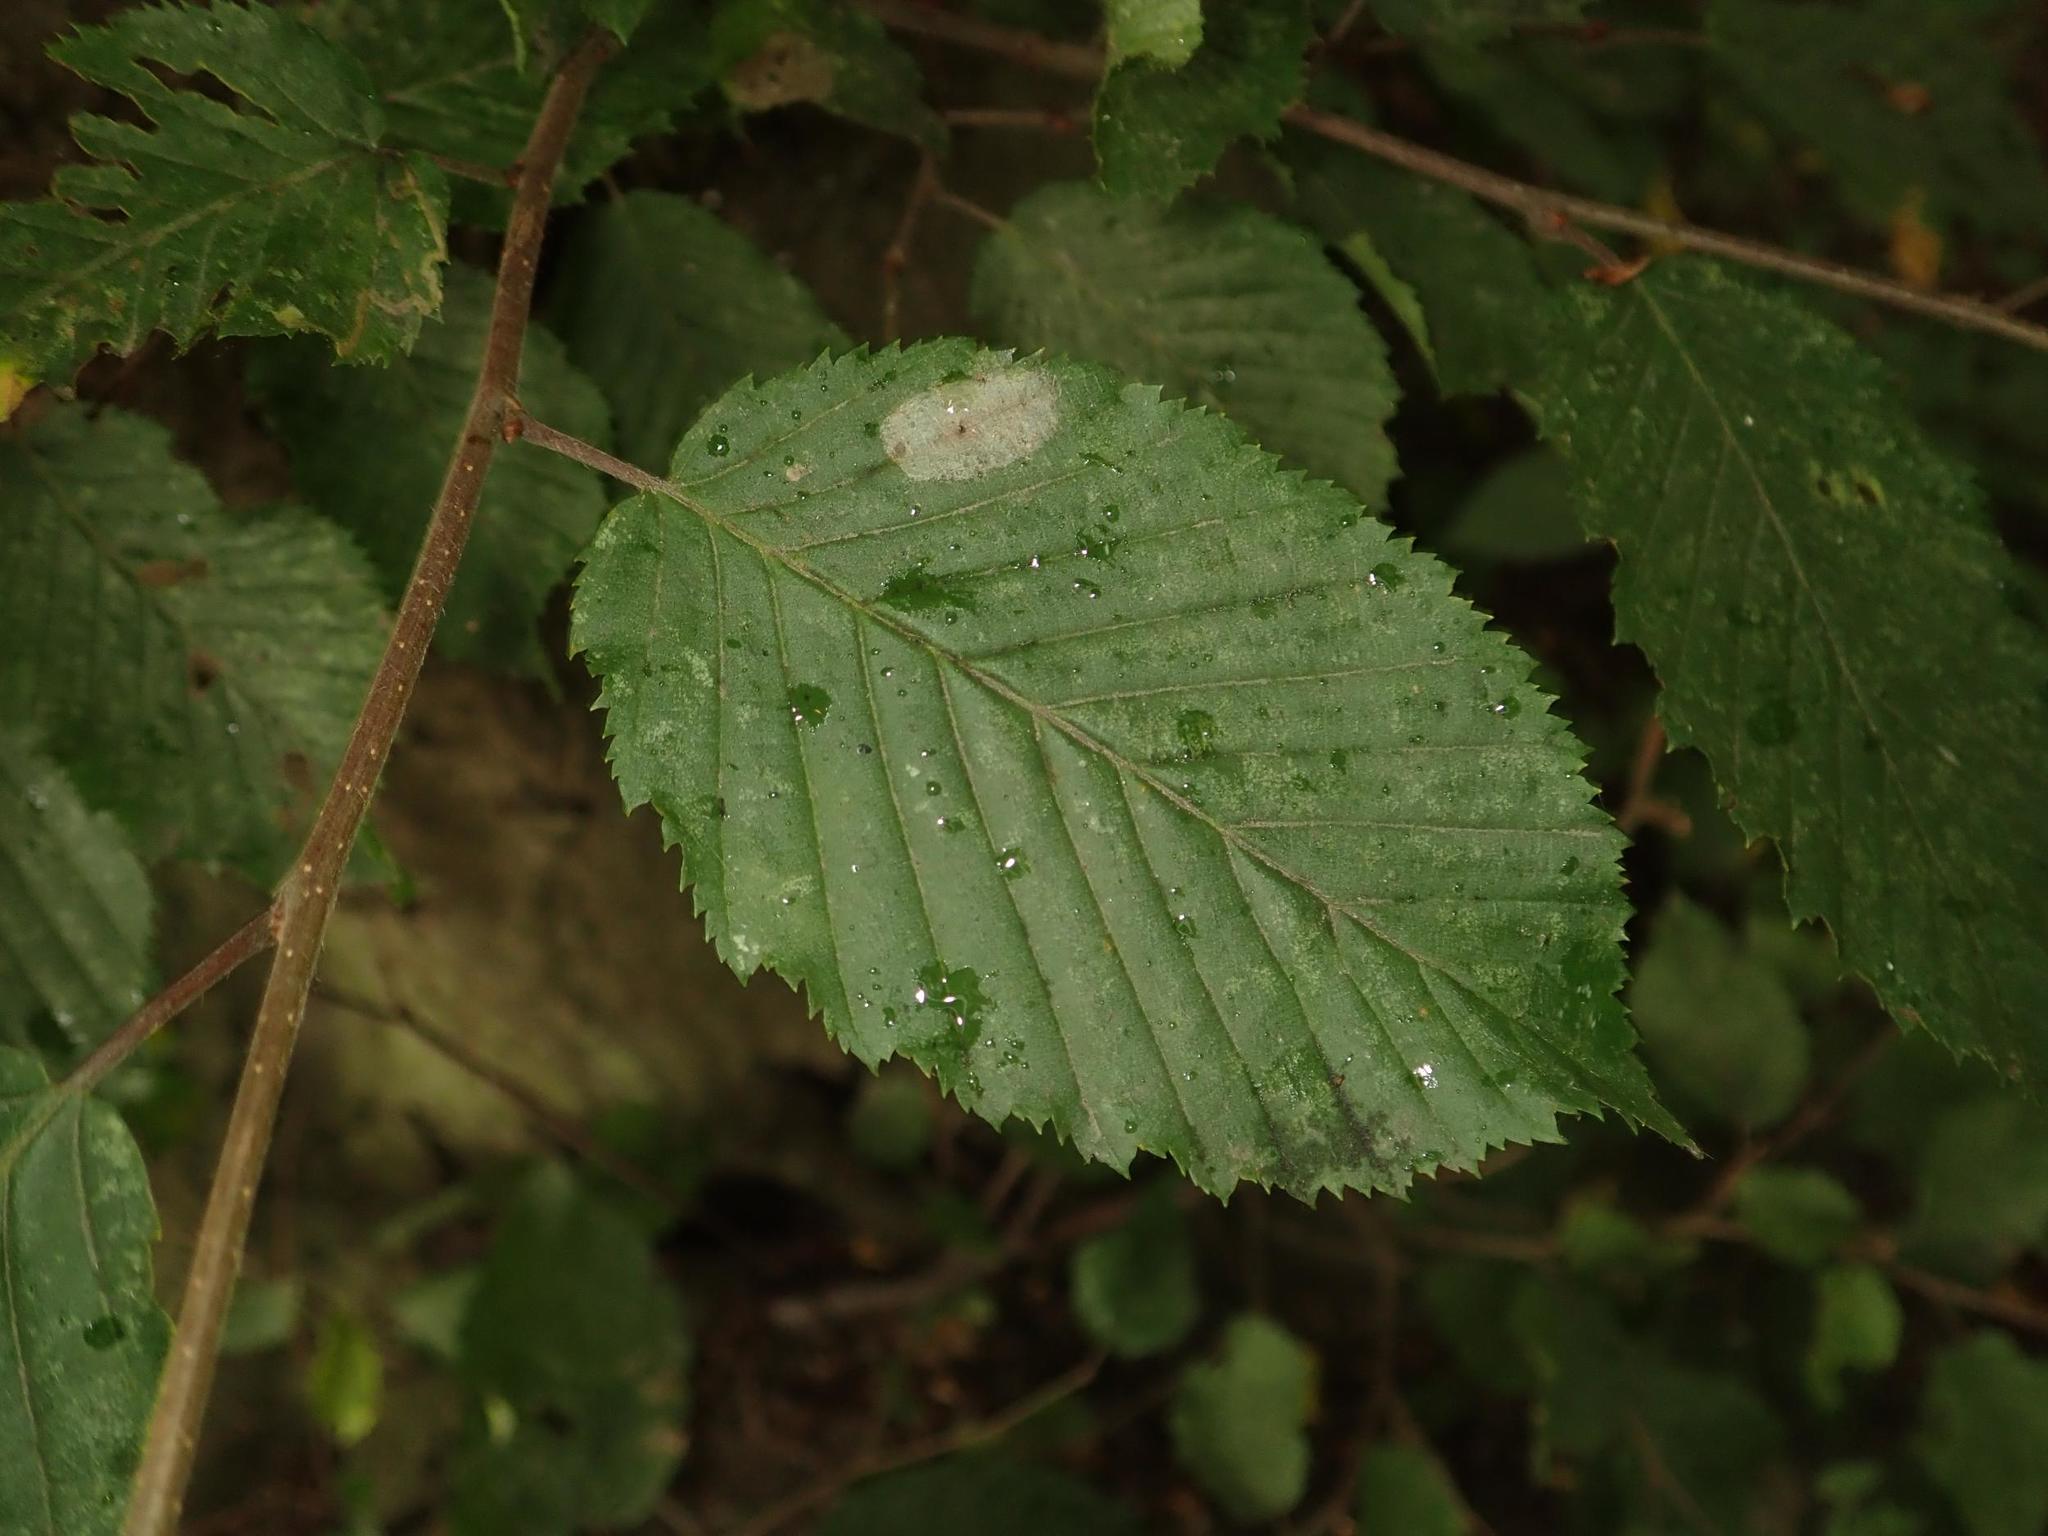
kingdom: Plantae
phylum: Tracheophyta
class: Magnoliopsida
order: Fagales
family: Betulaceae
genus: Carpinus
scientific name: Carpinus betulus
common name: Hornbeam
